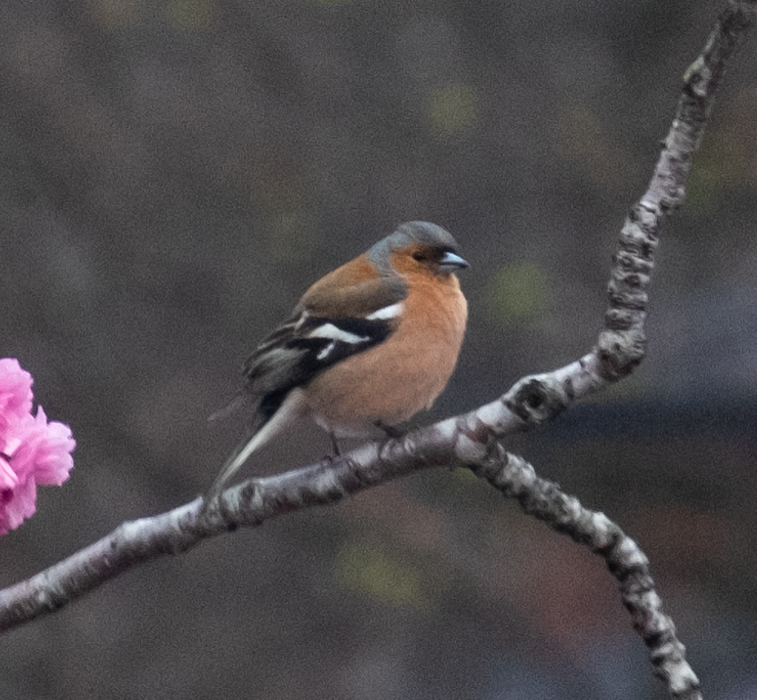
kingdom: Animalia
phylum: Chordata
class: Aves
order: Passeriformes
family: Fringillidae
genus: Fringilla
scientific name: Fringilla coelebs
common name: Common chaffinch
